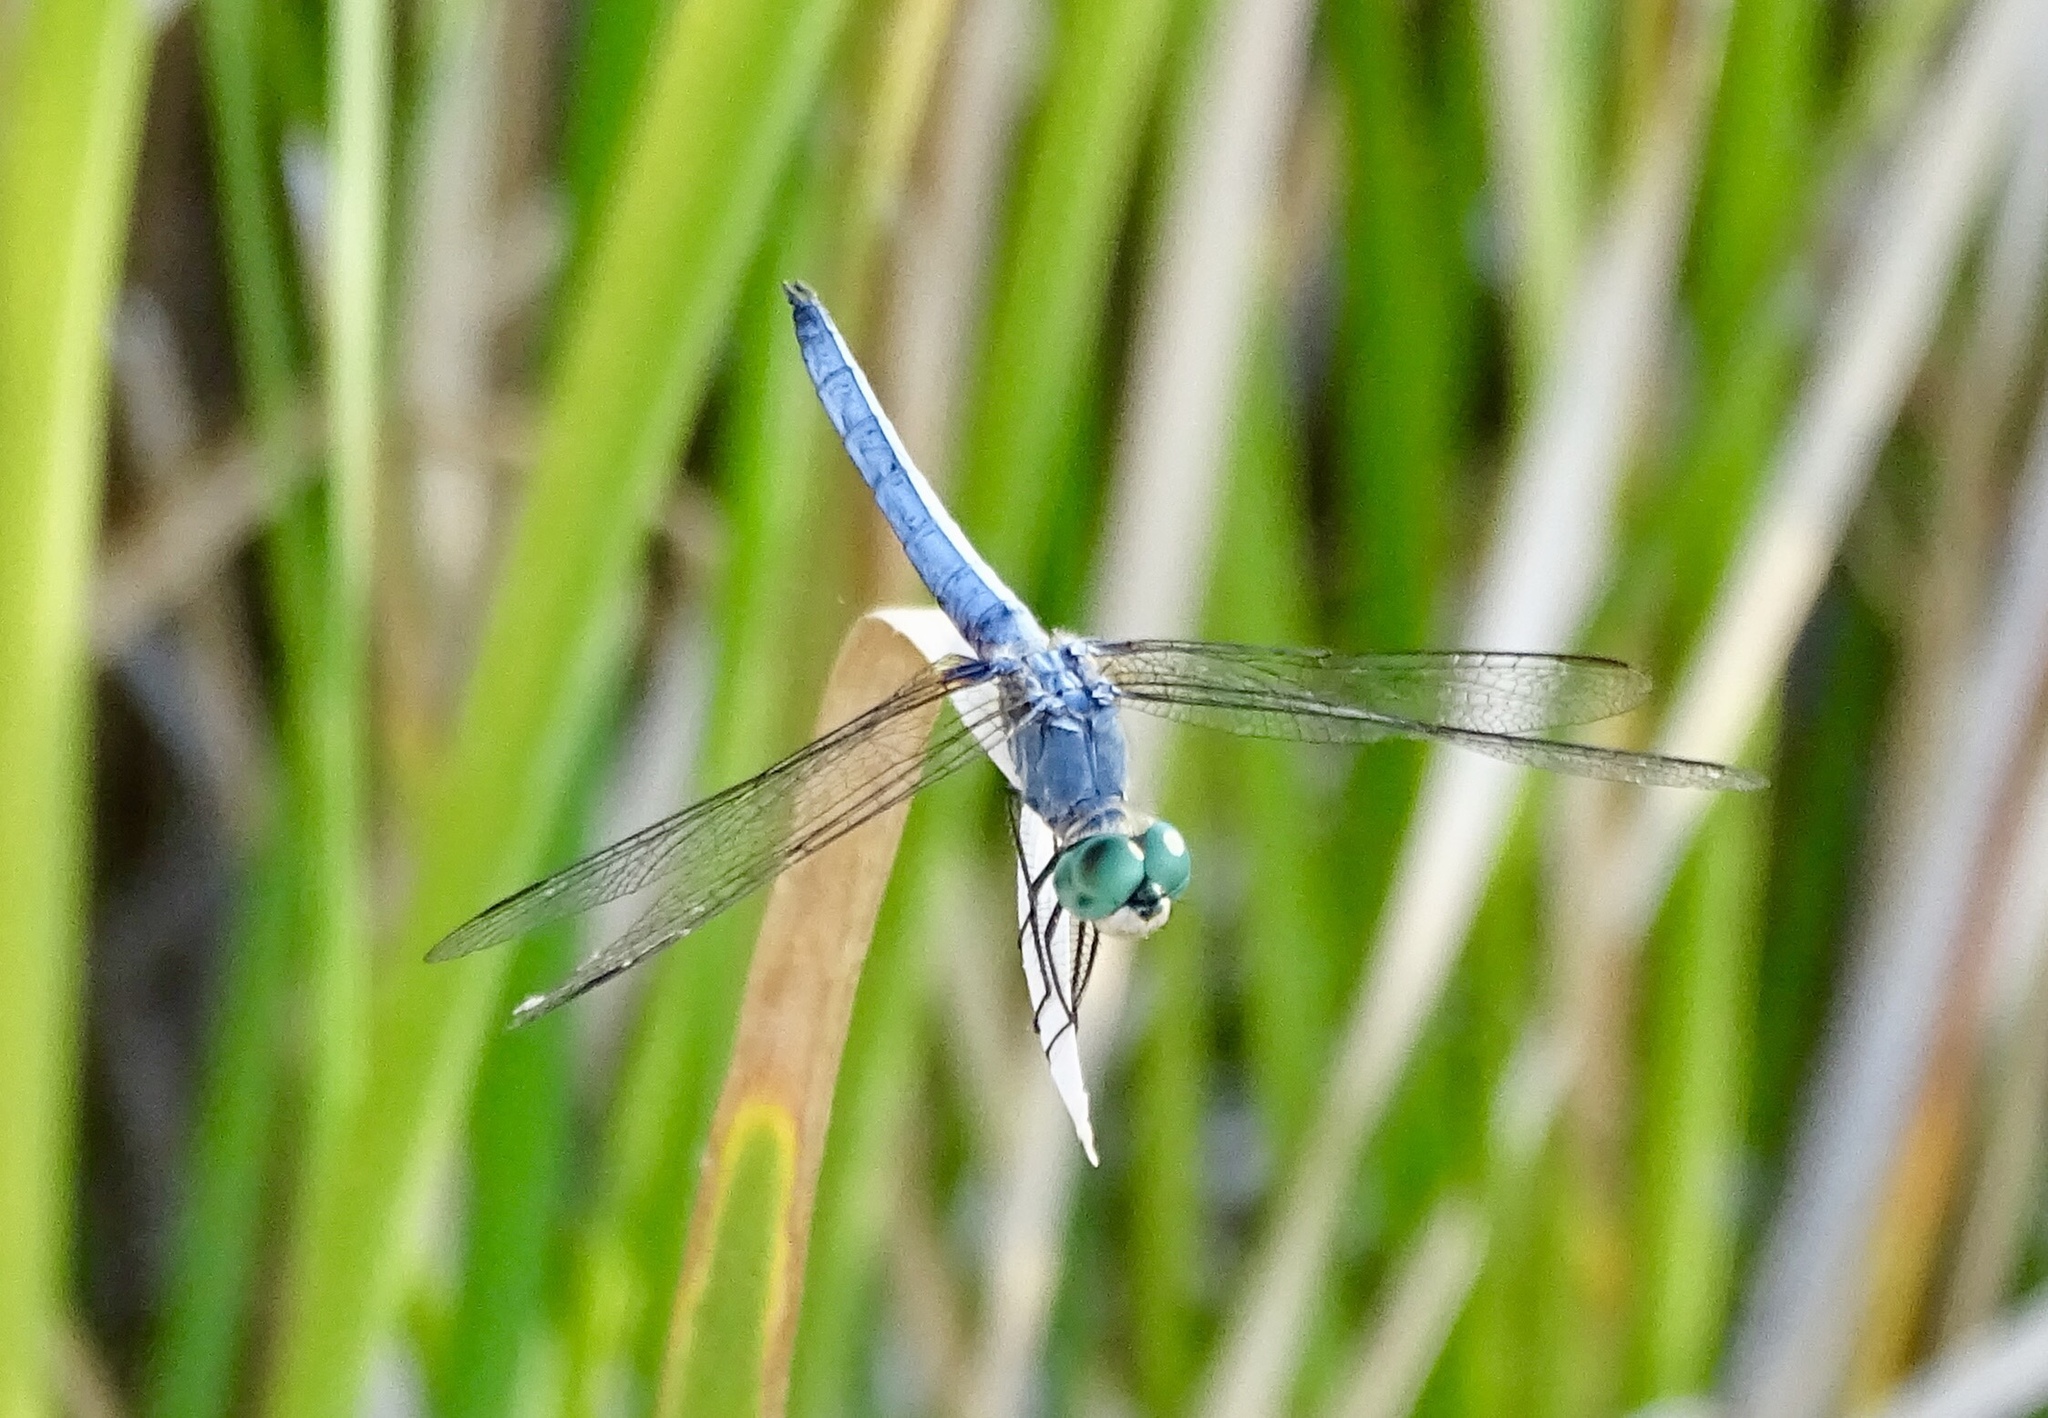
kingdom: Animalia
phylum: Arthropoda
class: Insecta
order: Odonata
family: Libellulidae
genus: Pachydiplax
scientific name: Pachydiplax longipennis
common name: Blue dasher
